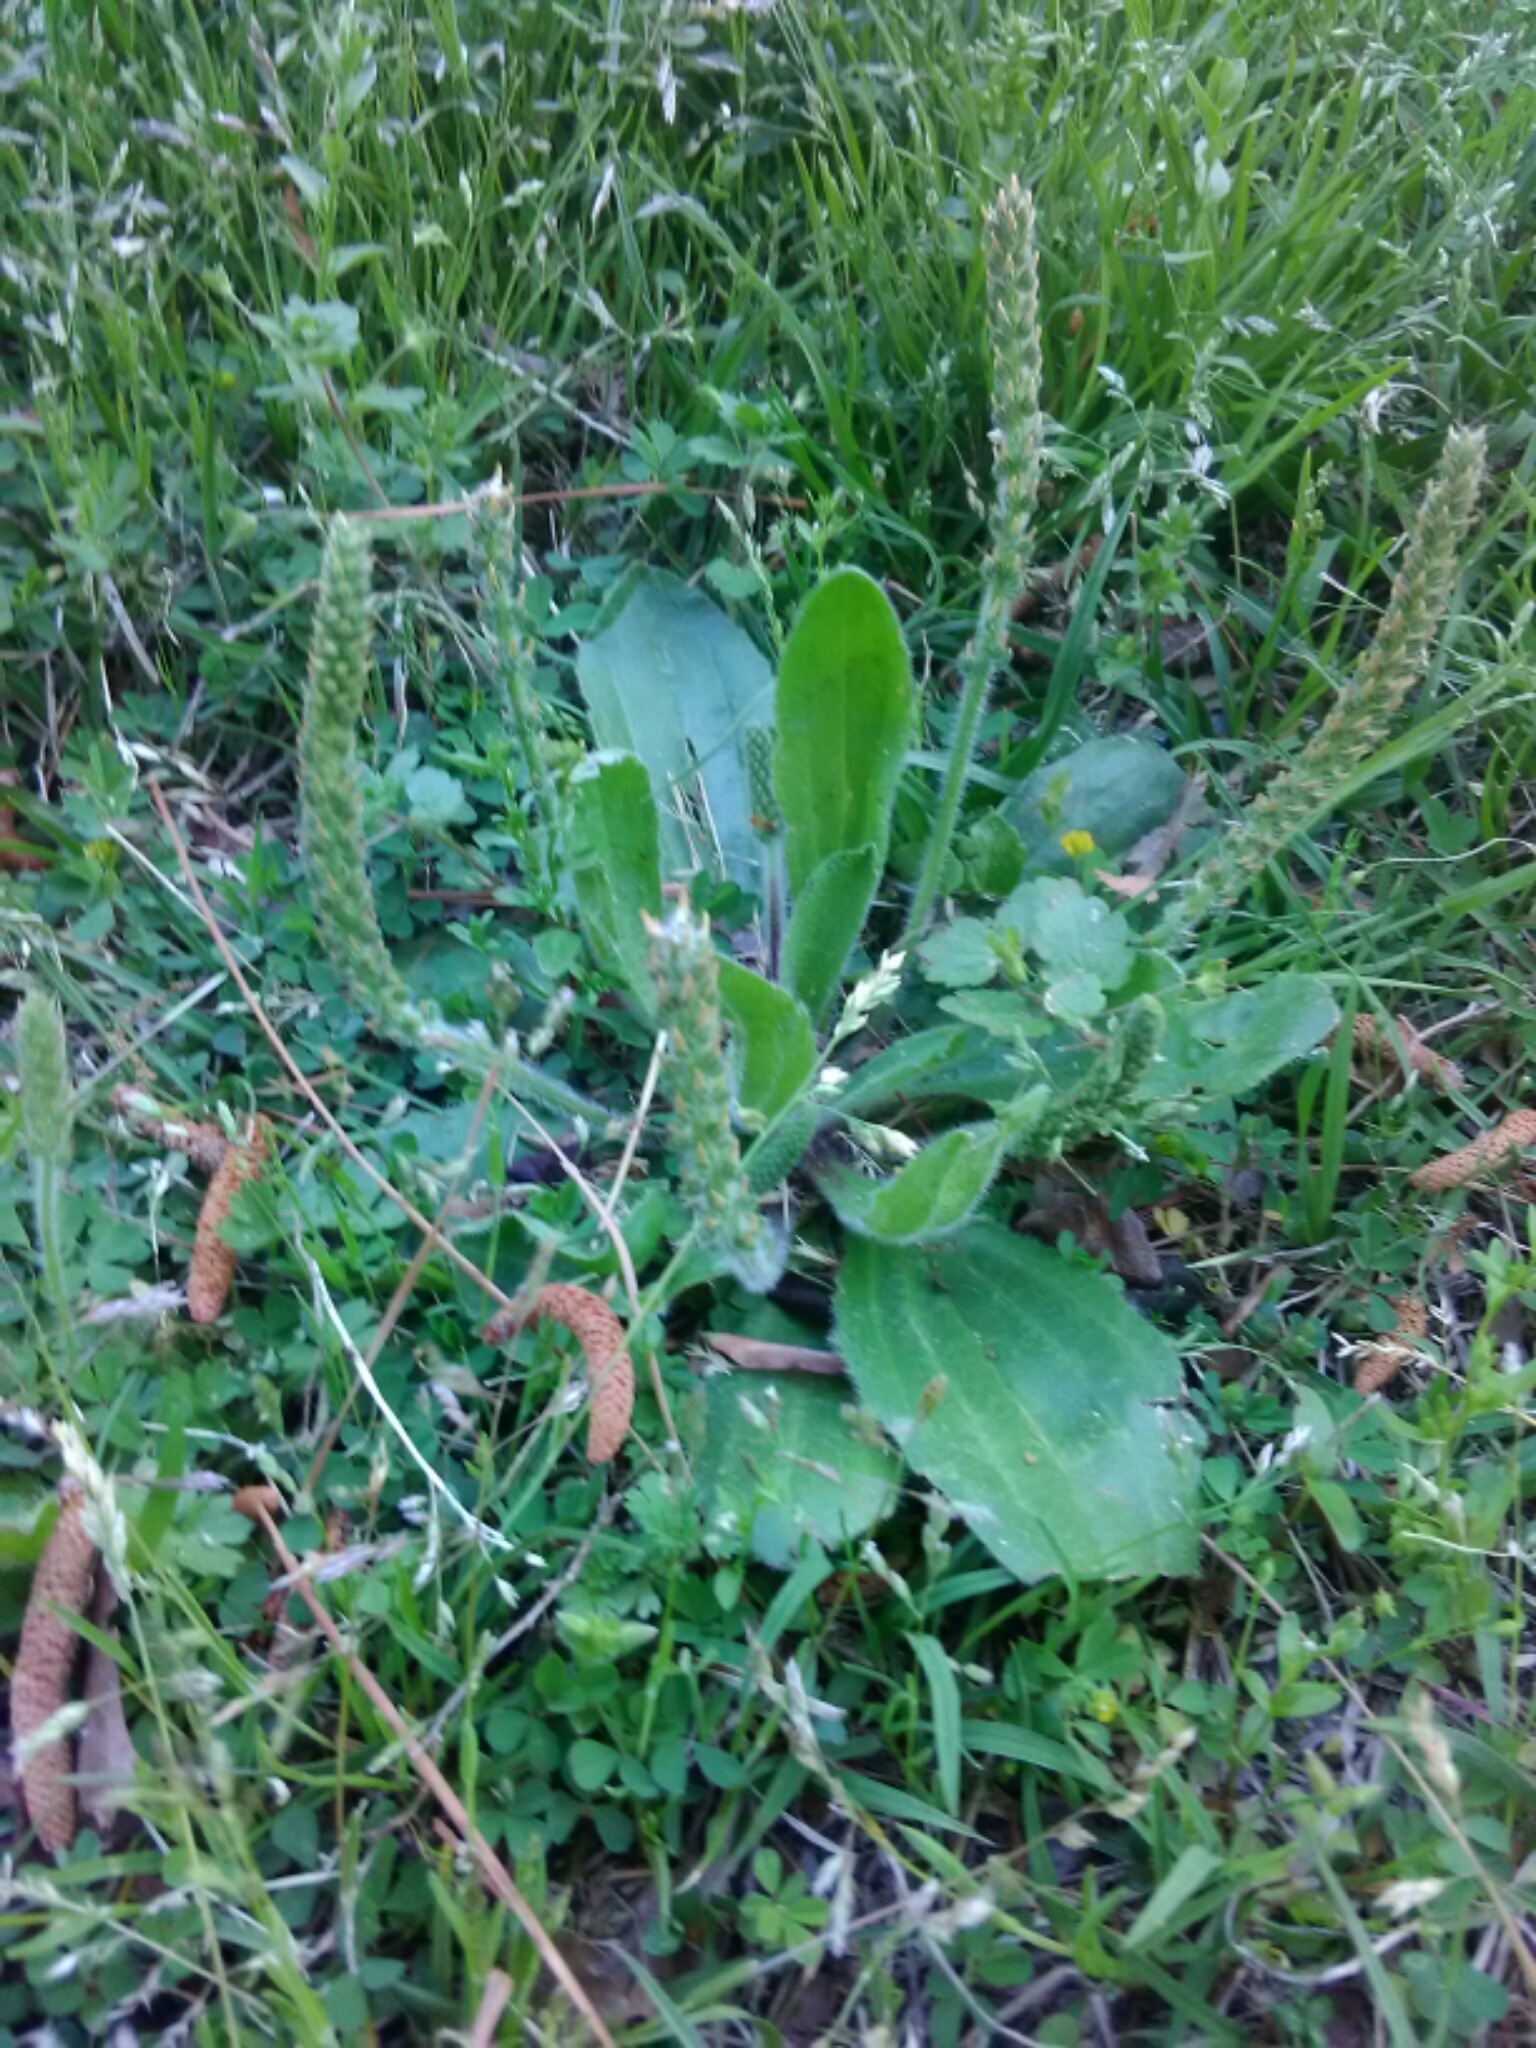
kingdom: Plantae
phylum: Tracheophyta
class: Magnoliopsida
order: Lamiales
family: Plantaginaceae
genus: Plantago
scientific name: Plantago major
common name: Common plantain
